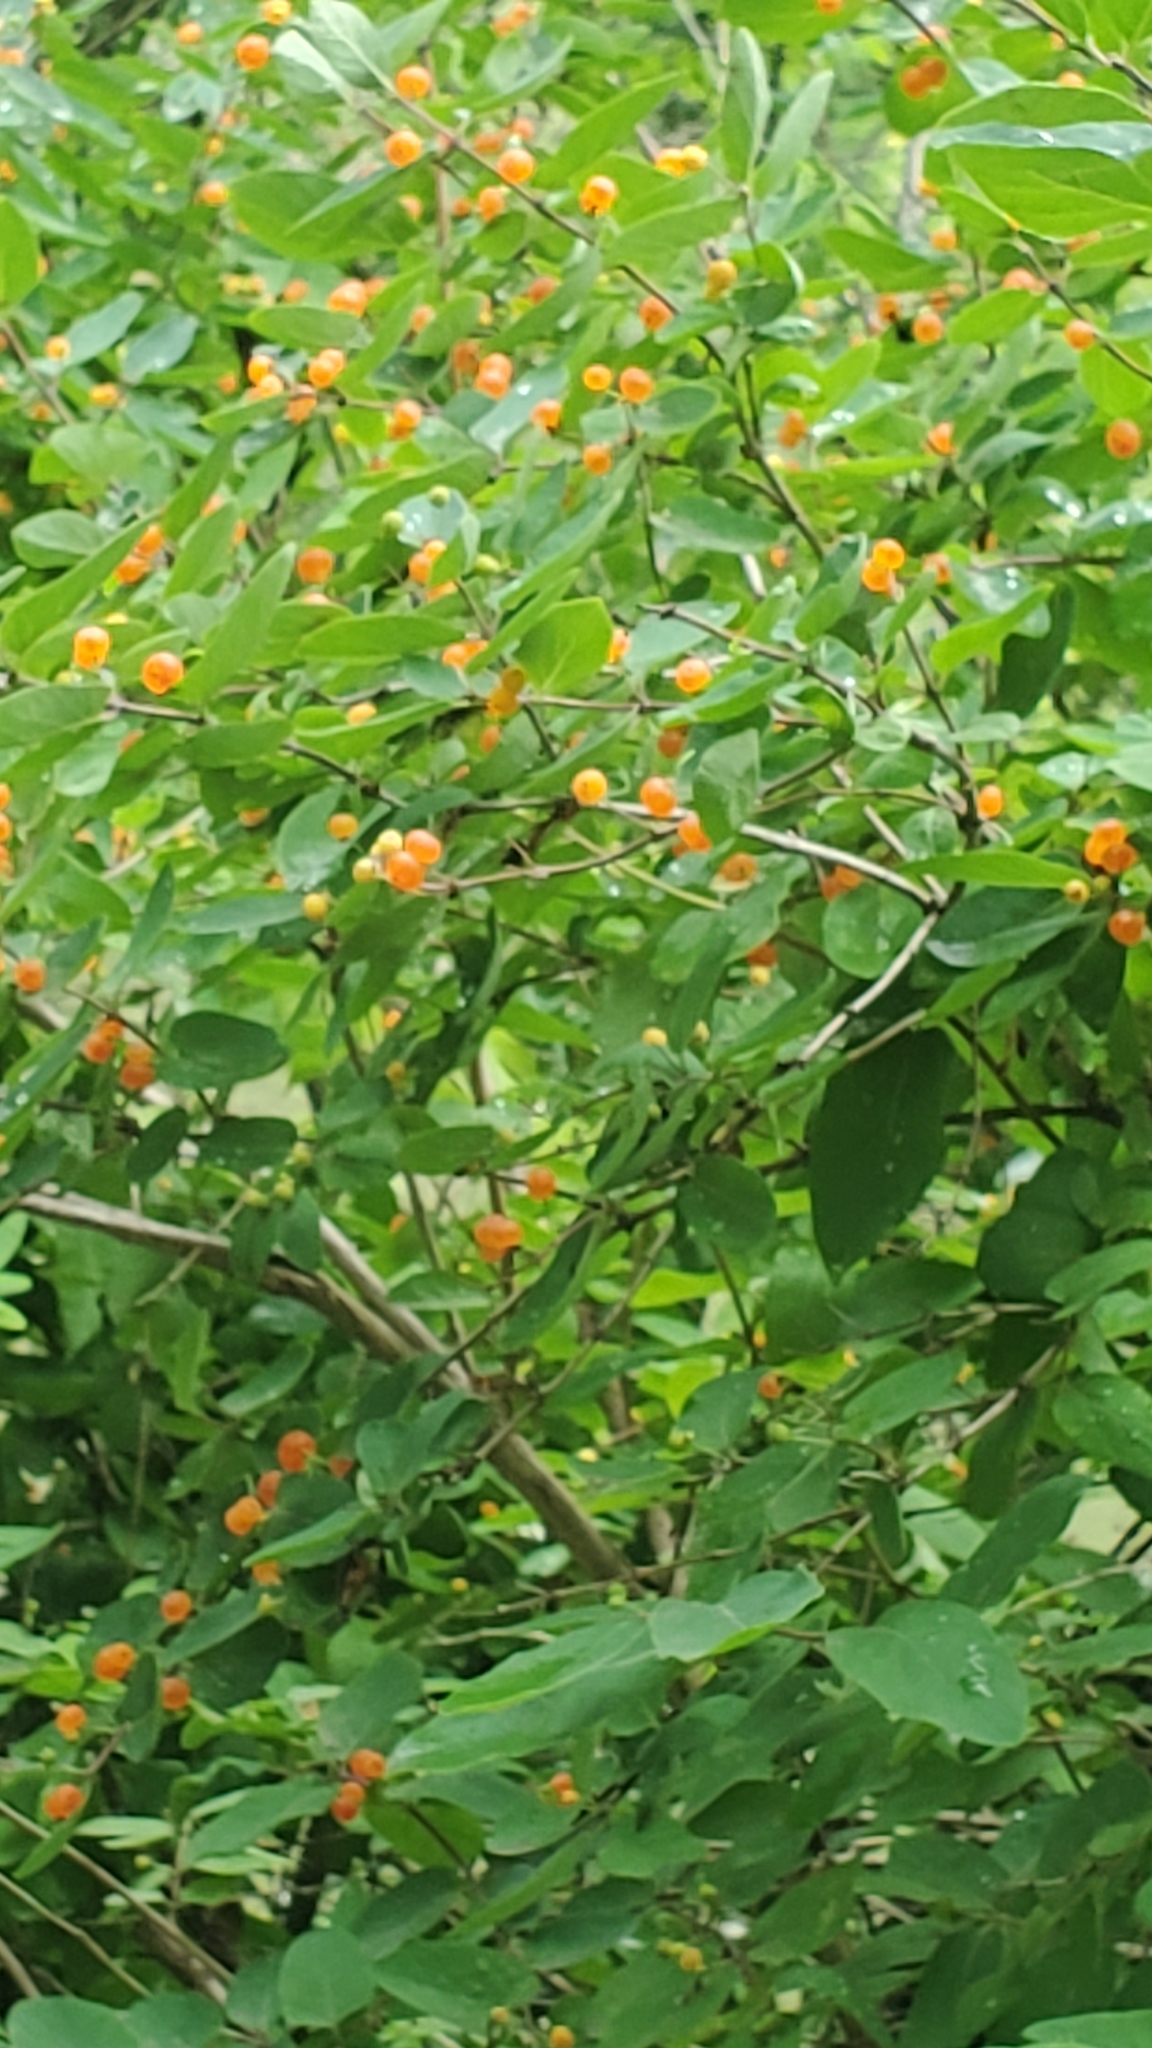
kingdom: Plantae
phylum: Tracheophyta
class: Magnoliopsida
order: Dipsacales
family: Caprifoliaceae
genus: Lonicera
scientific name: Lonicera tatarica
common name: Tatarian honeysuckle
